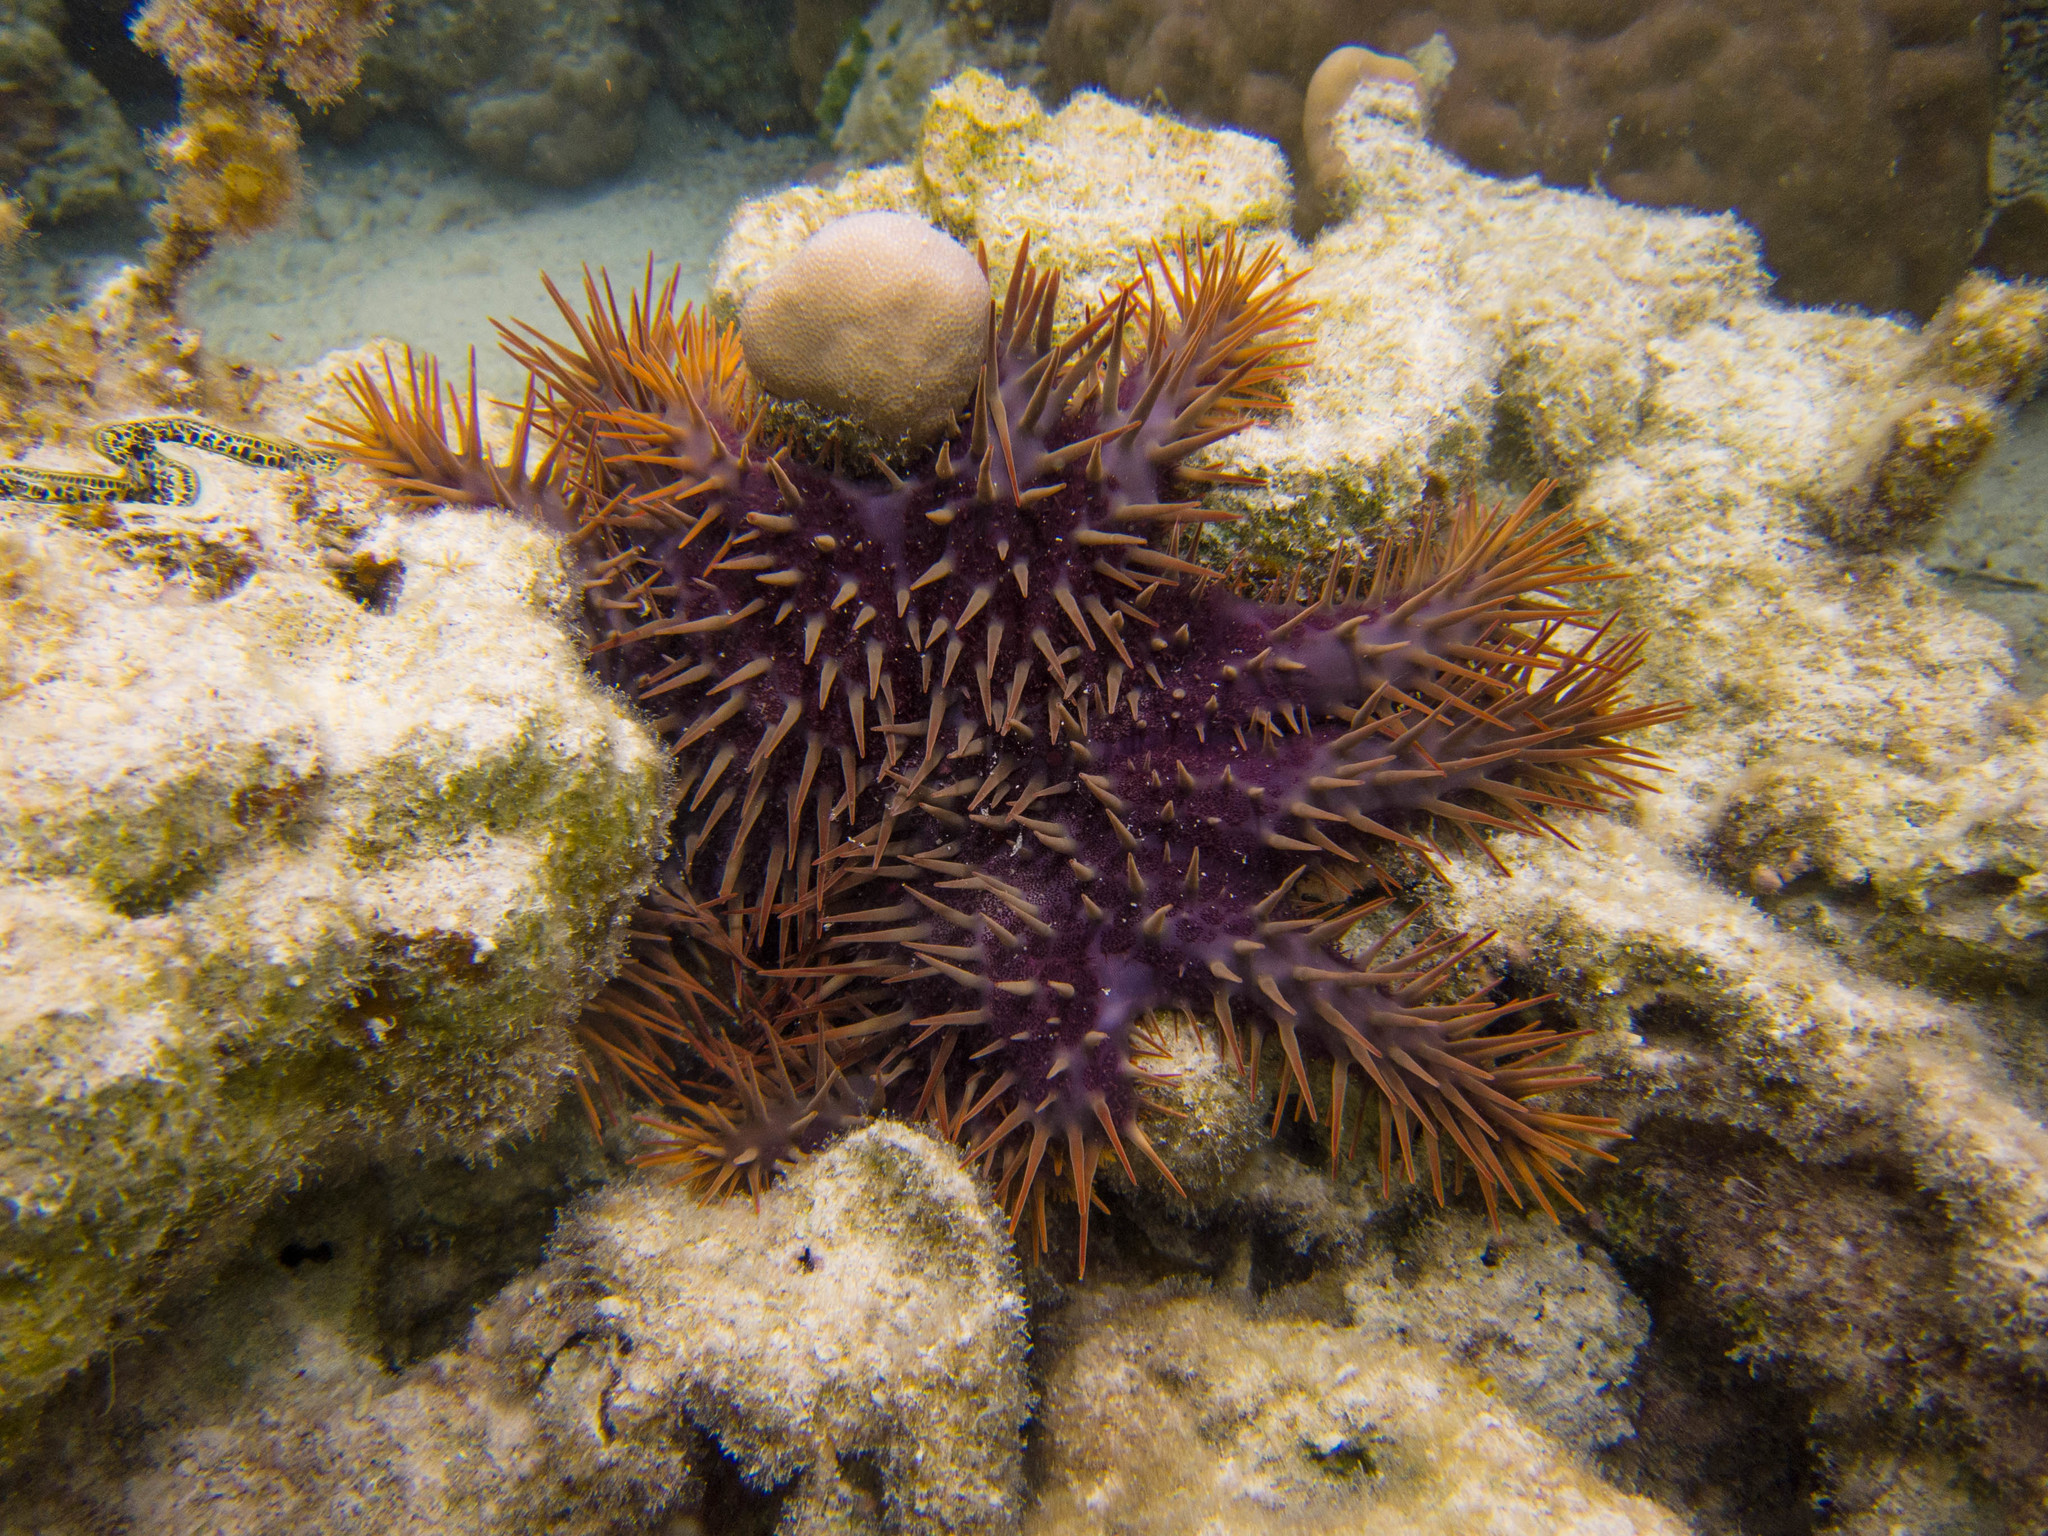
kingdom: Animalia
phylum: Echinodermata
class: Asteroidea
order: Valvatida
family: Acanthasteridae
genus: Acanthaster
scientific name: Acanthaster planci
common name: Crown-of-thorns
